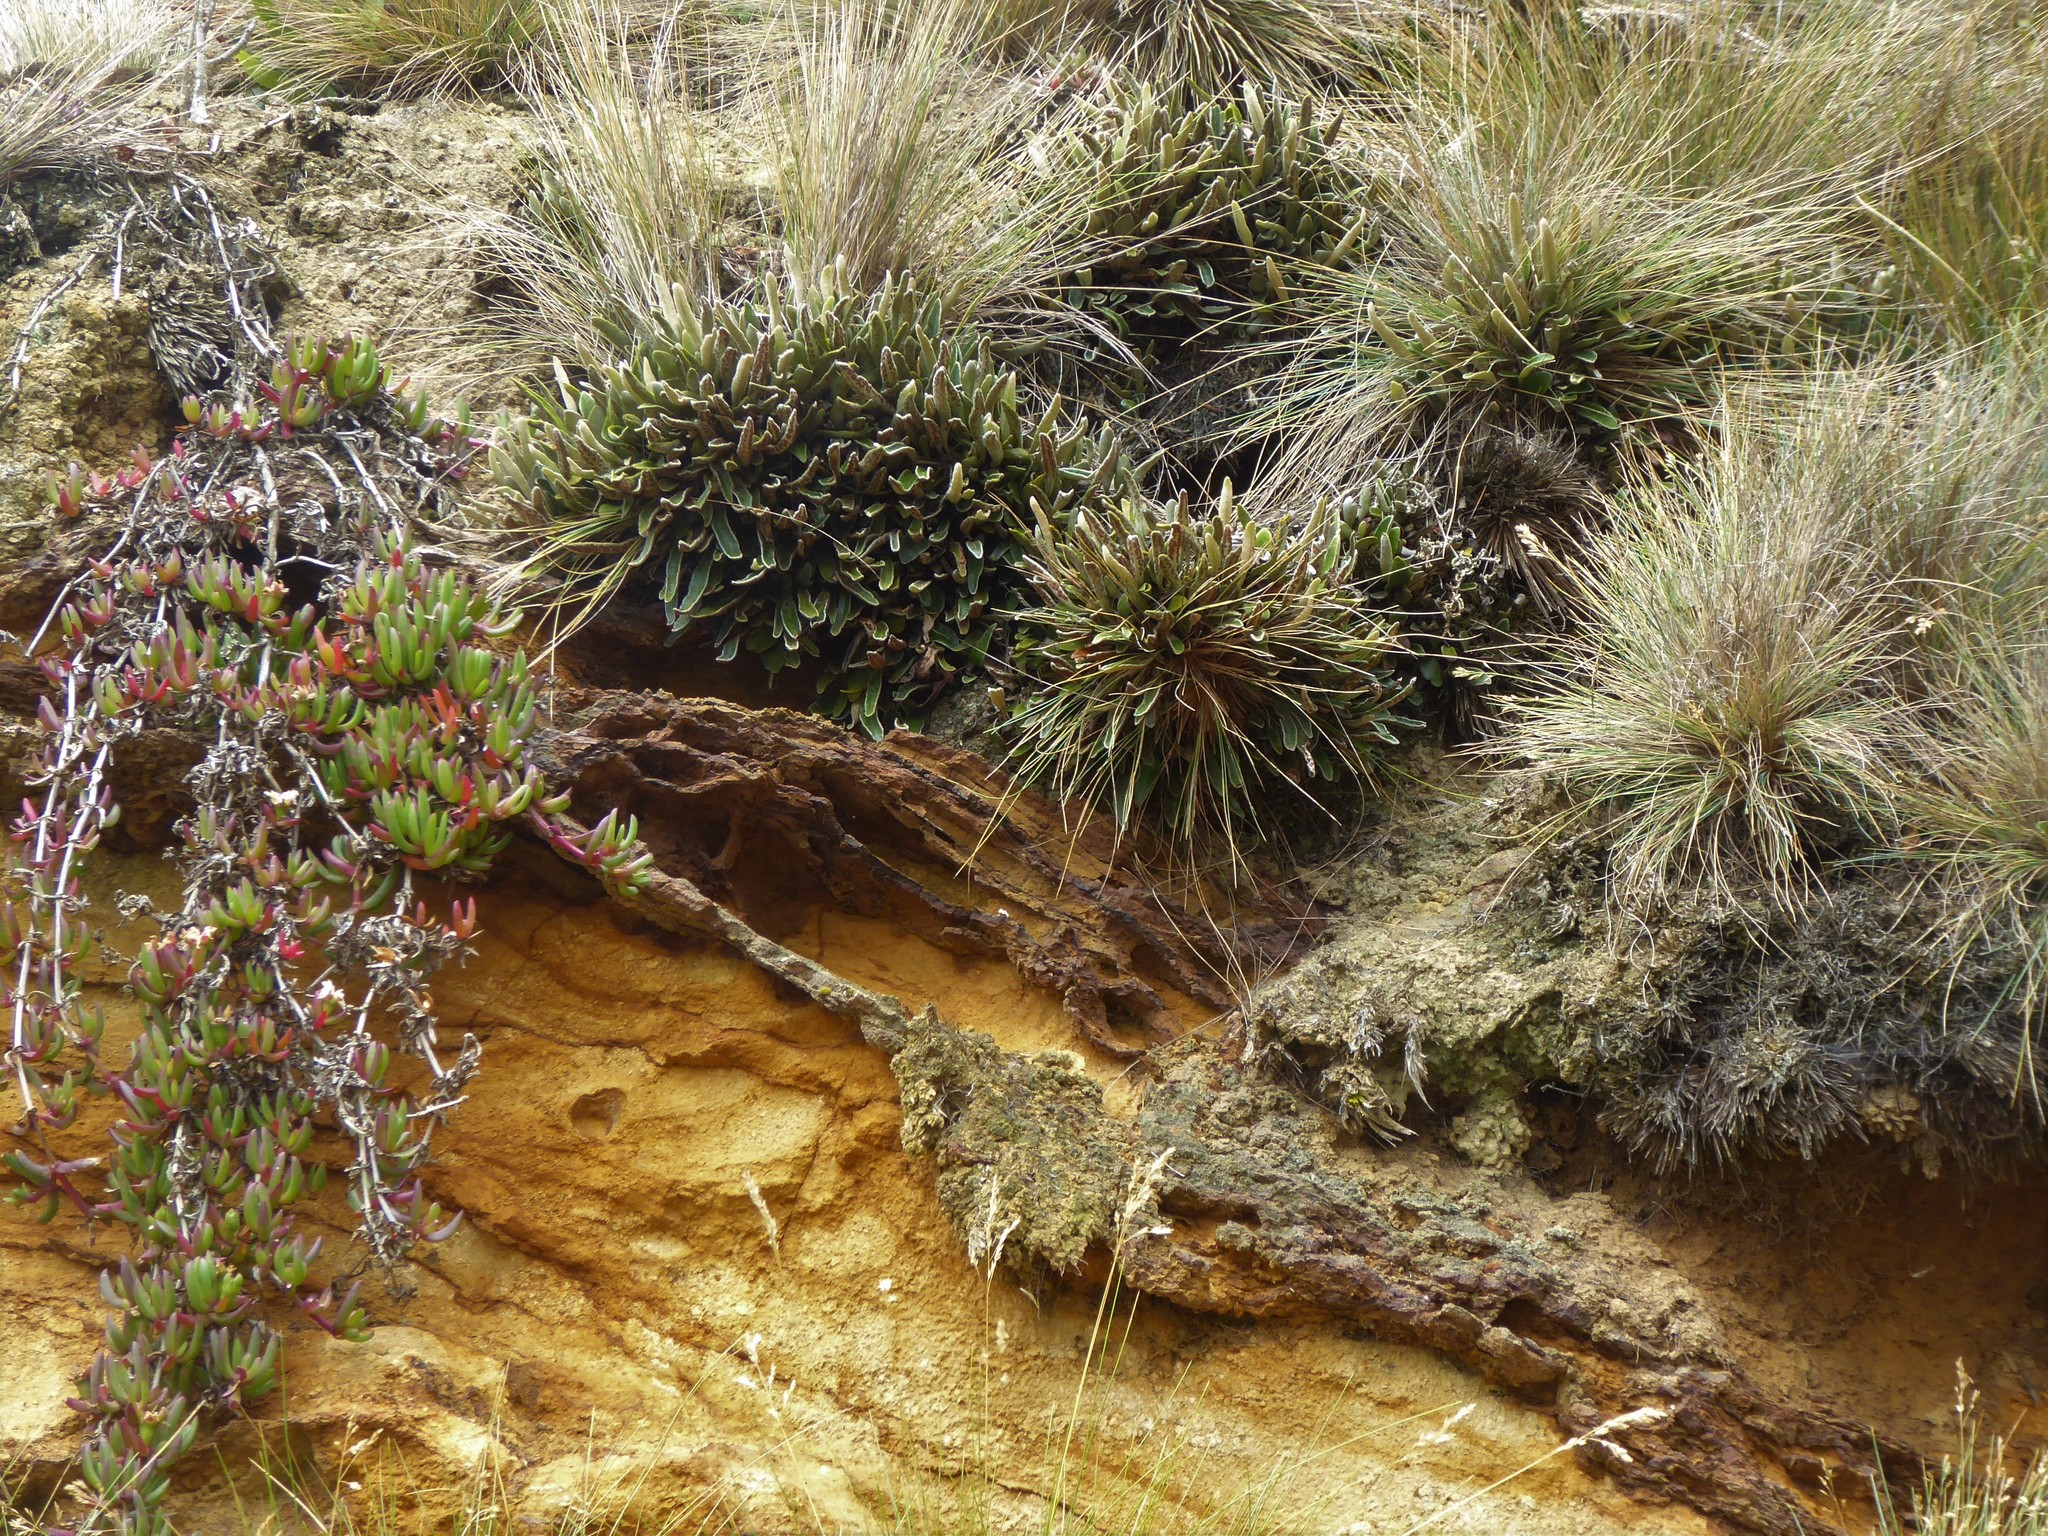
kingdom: Plantae
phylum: Tracheophyta
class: Polypodiopsida
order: Polypodiales
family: Polypodiaceae
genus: Pyrrosia
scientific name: Pyrrosia eleagnifolia
